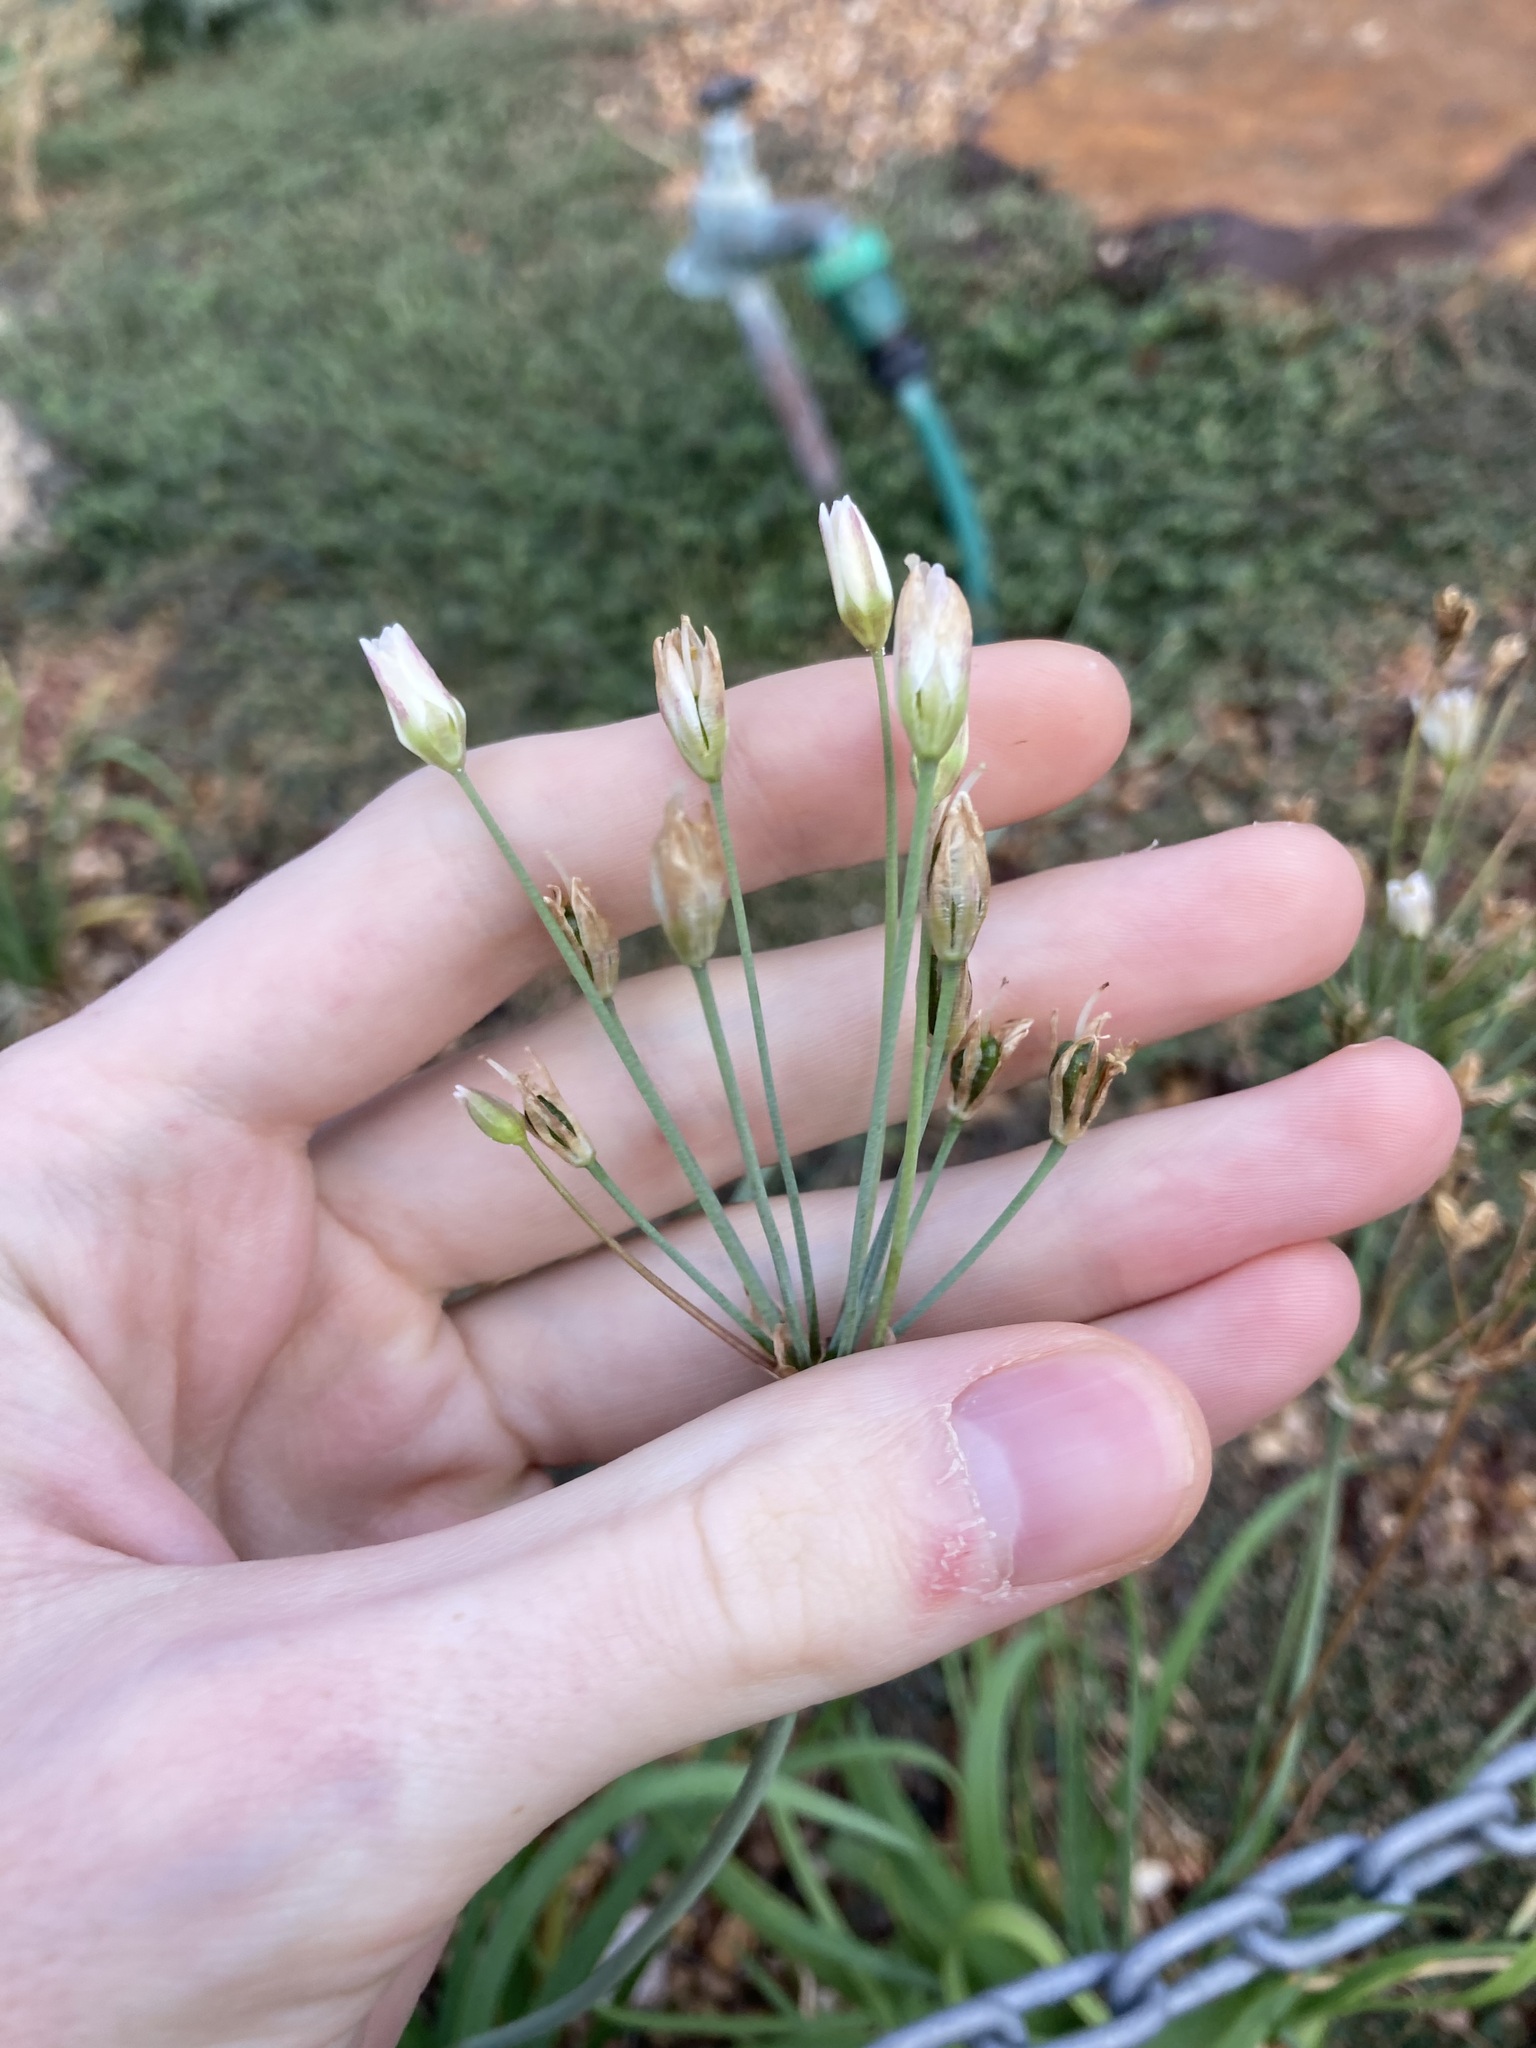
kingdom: Plantae
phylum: Tracheophyta
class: Liliopsida
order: Asparagales
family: Amaryllidaceae
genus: Nothoscordum
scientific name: Nothoscordum gracile
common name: Slender false garlic
